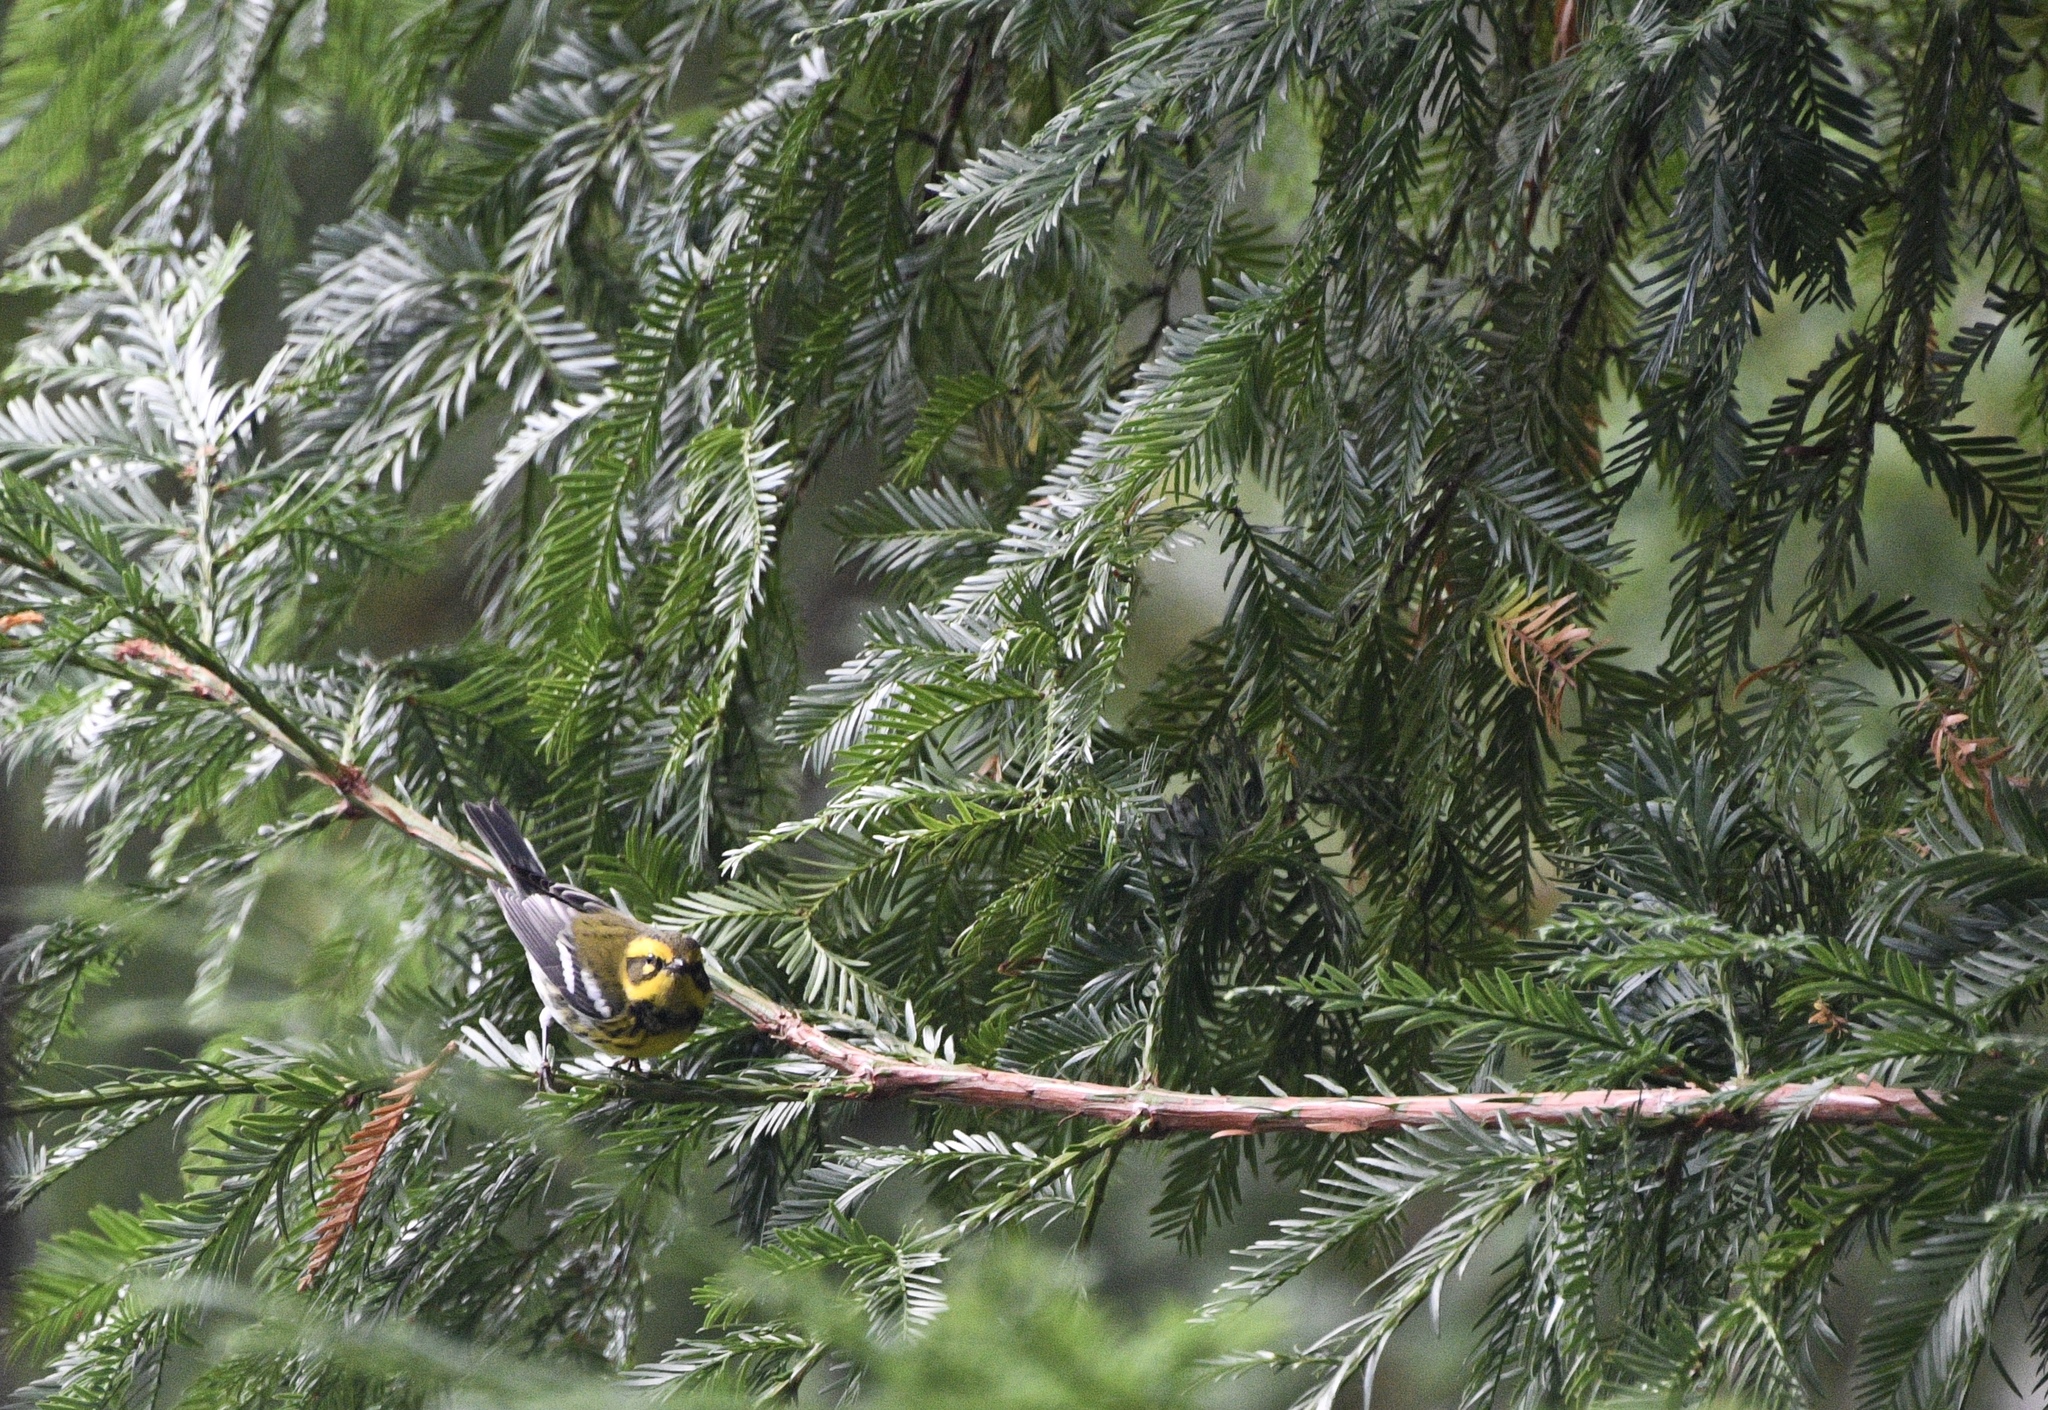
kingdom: Animalia
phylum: Chordata
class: Aves
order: Passeriformes
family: Parulidae
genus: Setophaga
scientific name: Setophaga townsendi
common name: Townsend's warbler
